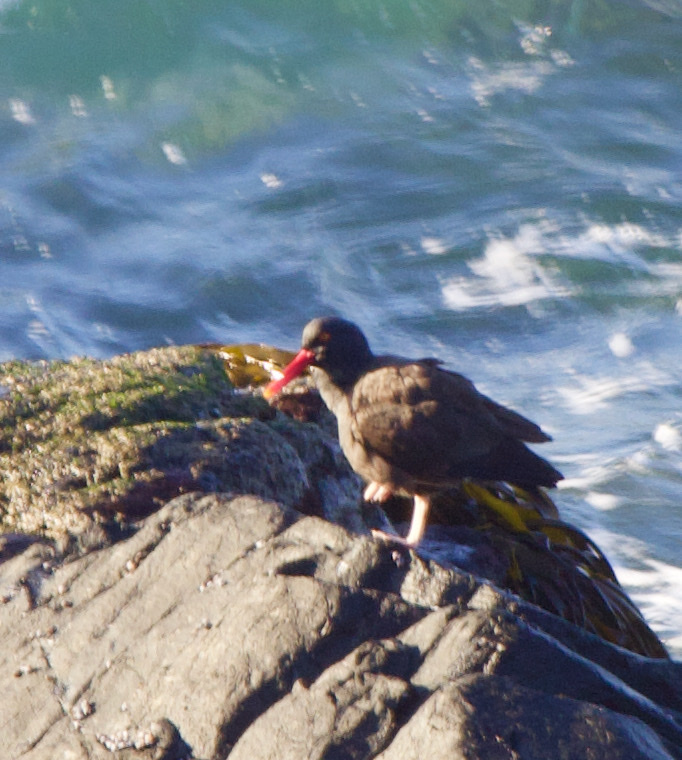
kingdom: Animalia
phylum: Chordata
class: Aves
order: Charadriiformes
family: Haematopodidae
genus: Haematopus
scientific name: Haematopus ater
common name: Blackish oystercatcher
